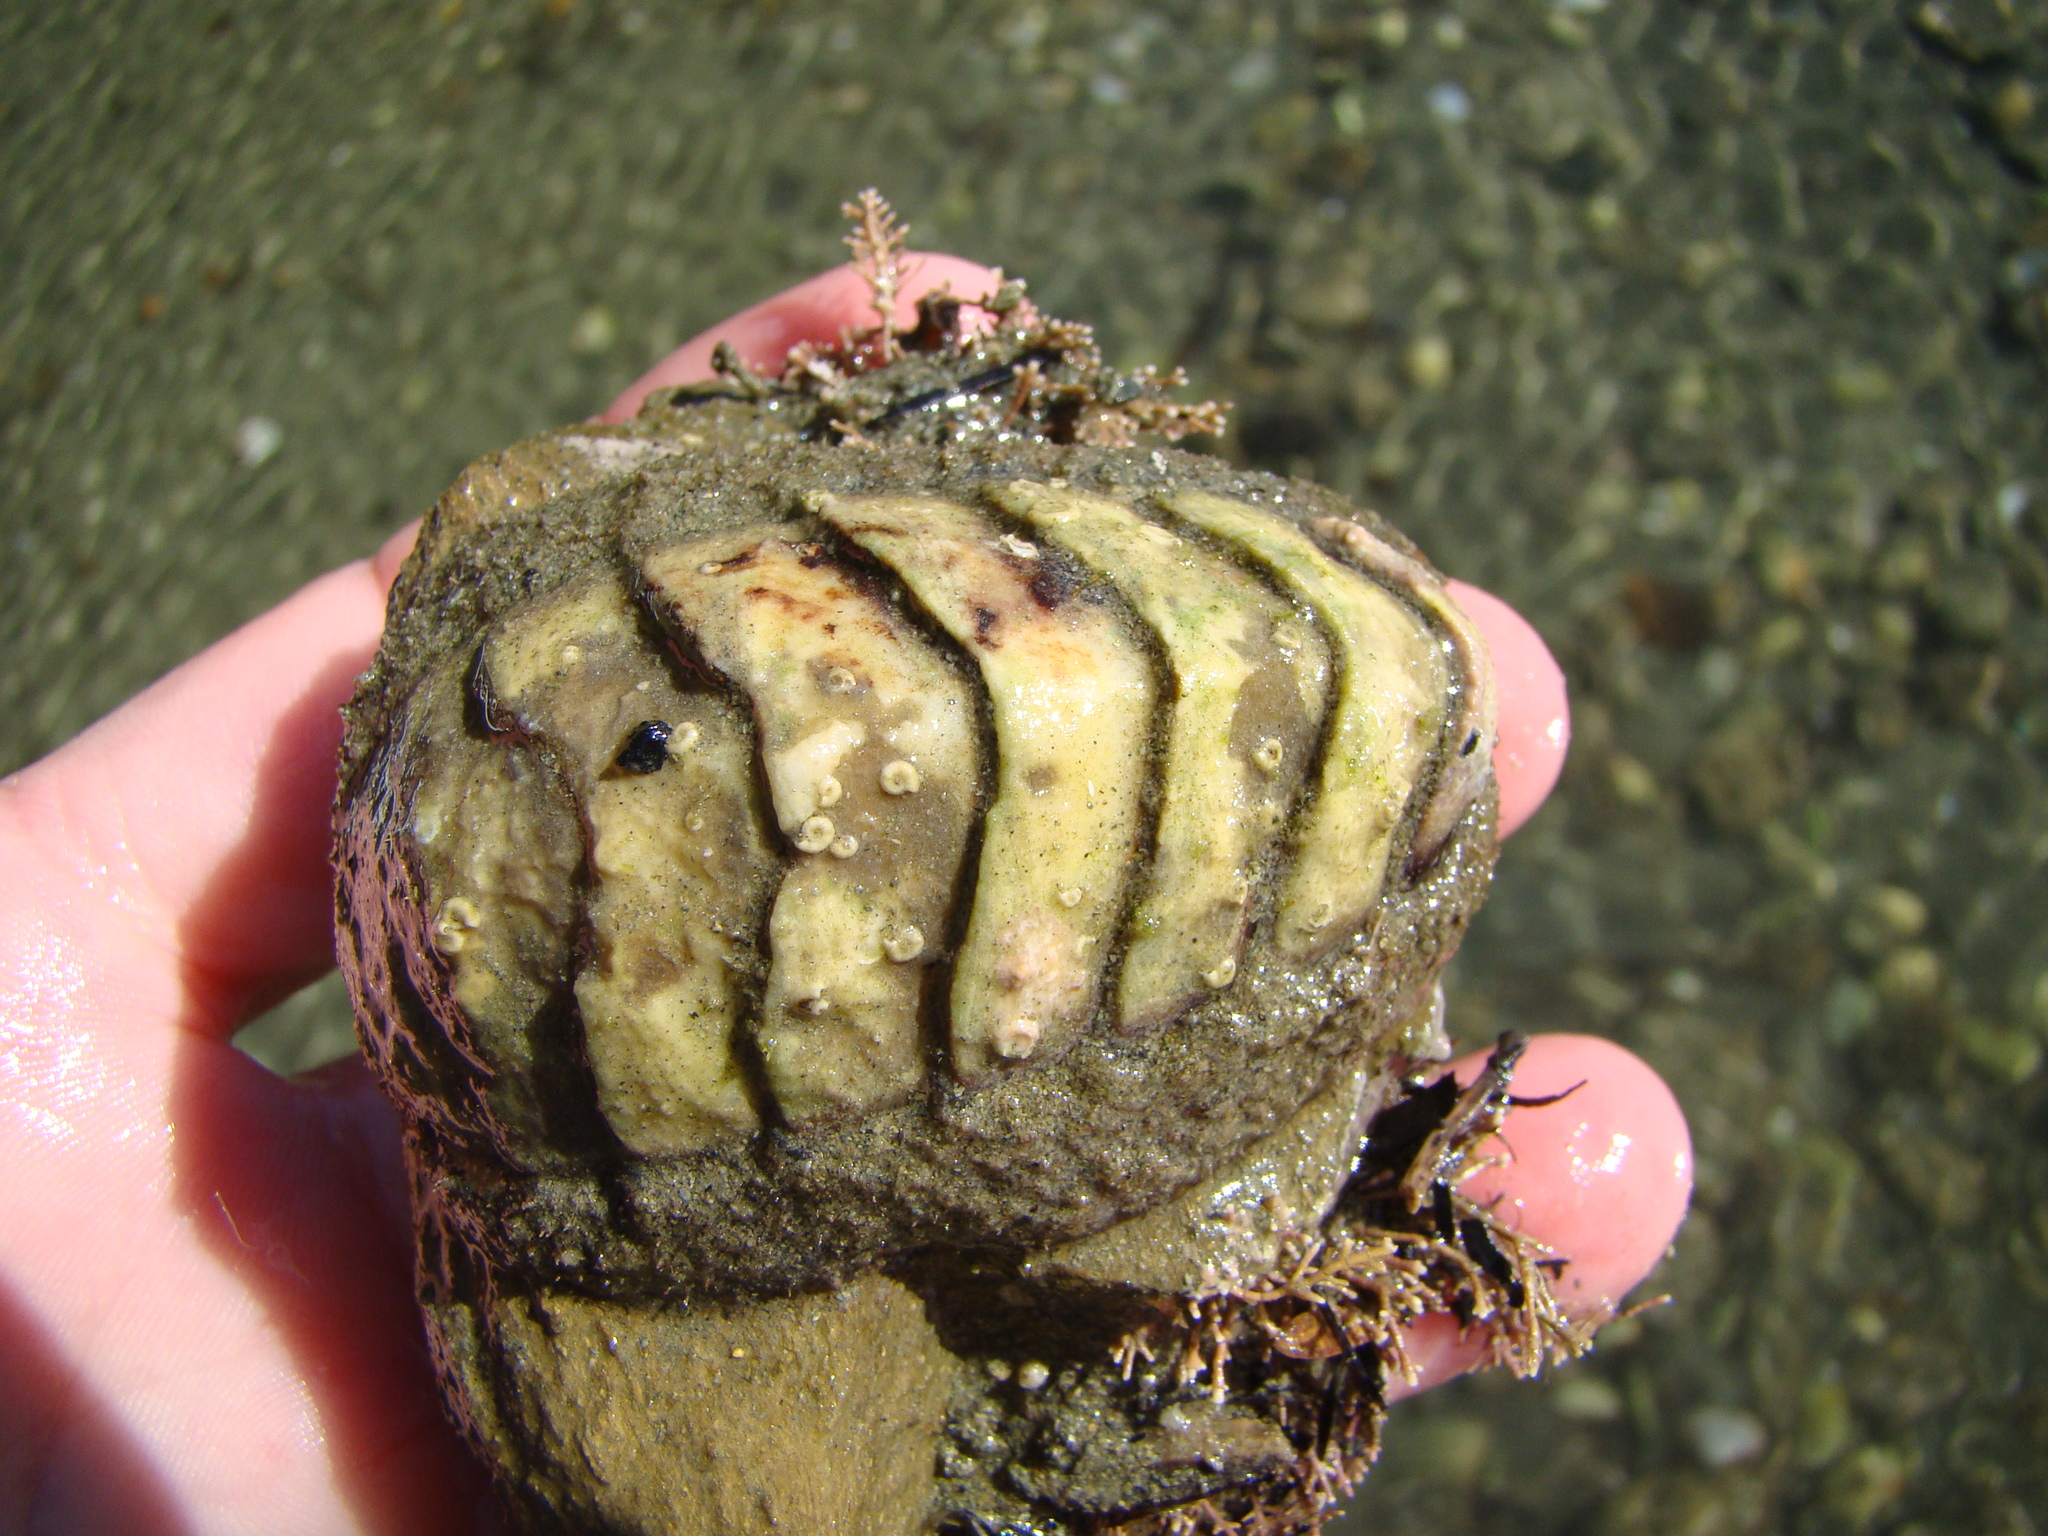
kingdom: Animalia
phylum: Mollusca
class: Polyplacophora
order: Callochitonida
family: Callochitonidae
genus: Eudoxochiton
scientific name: Eudoxochiton nobilis
